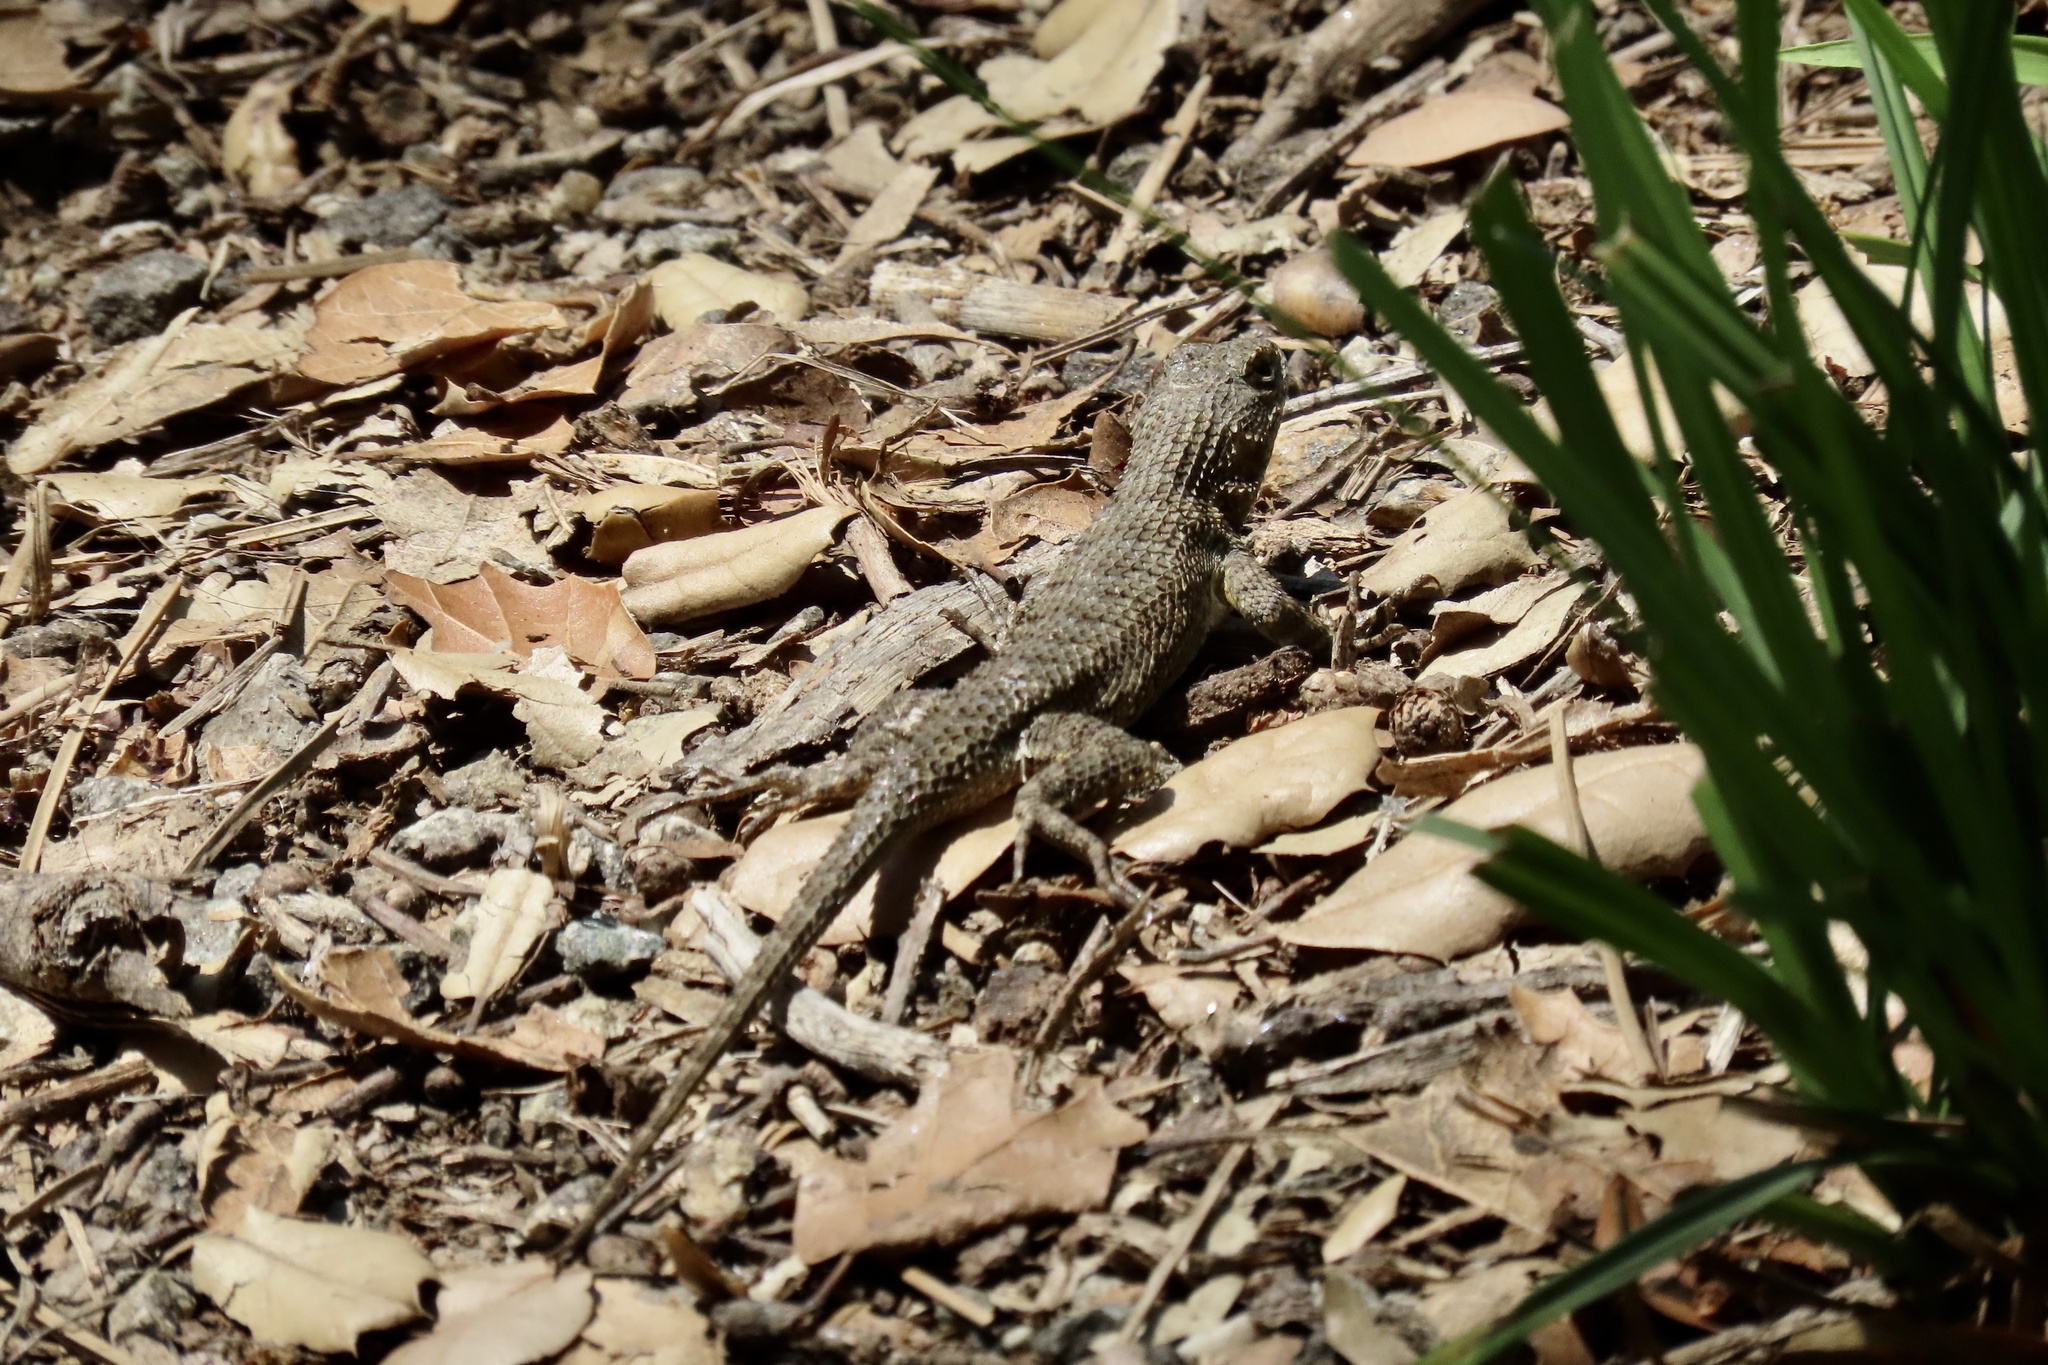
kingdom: Animalia
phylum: Chordata
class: Squamata
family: Phrynosomatidae
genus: Sceloporus
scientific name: Sceloporus occidentalis
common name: Western fence lizard
